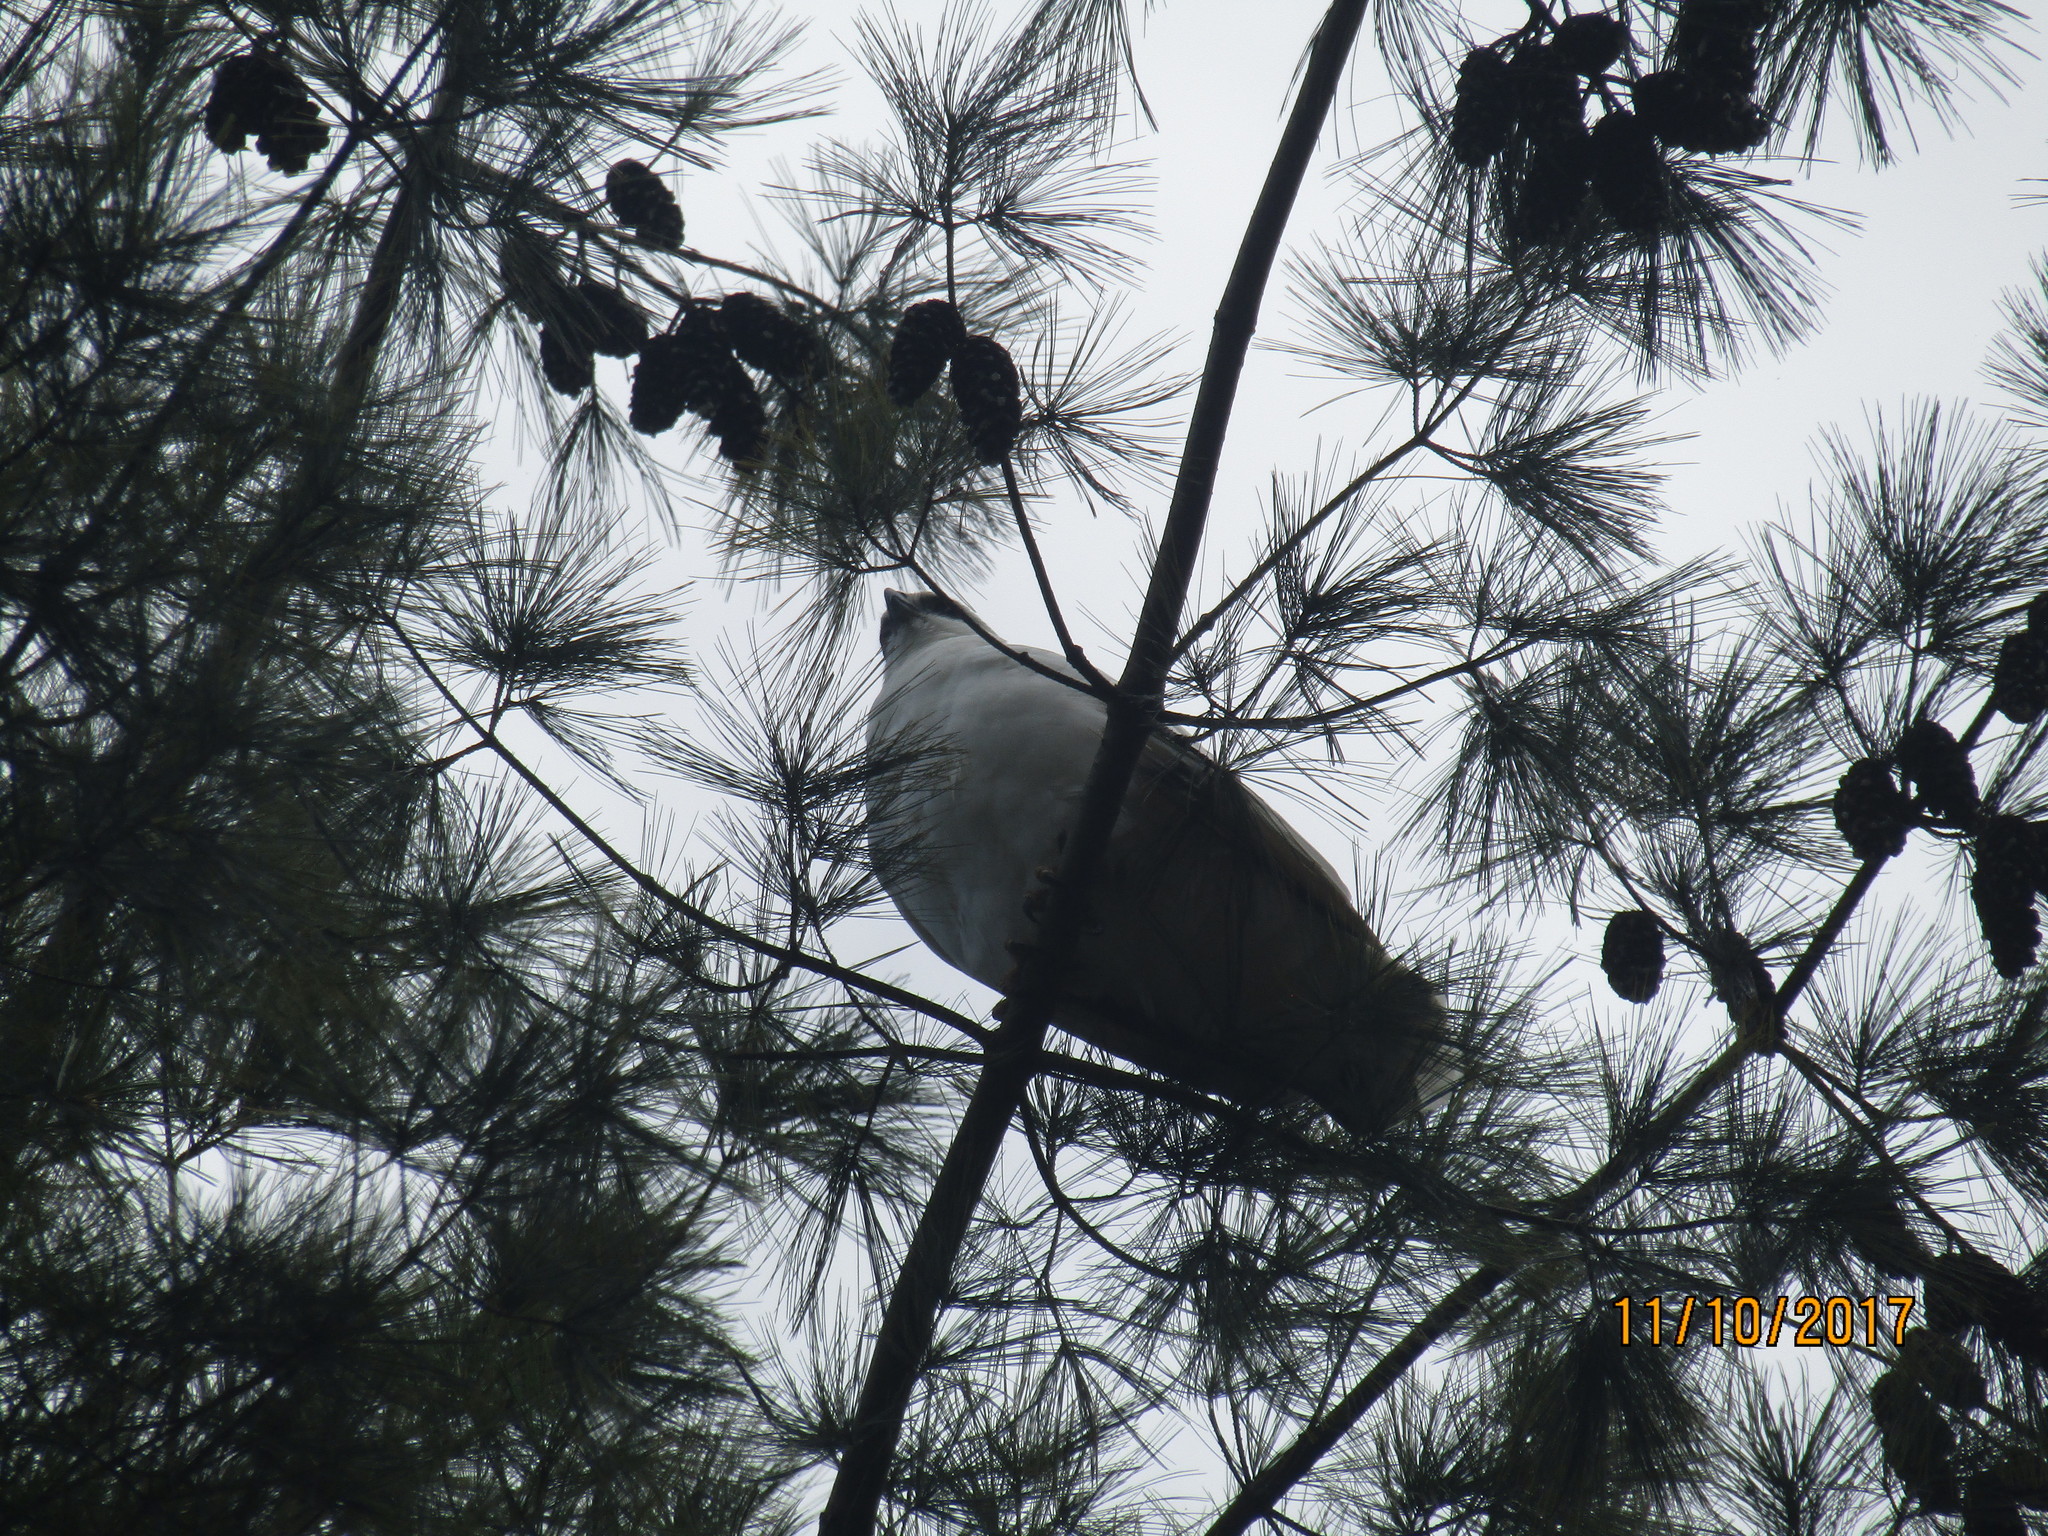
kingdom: Animalia
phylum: Chordata
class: Aves
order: Accipitriformes
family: Accipitridae
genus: Leucopternis
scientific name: Leucopternis albicollis
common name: White hawk
